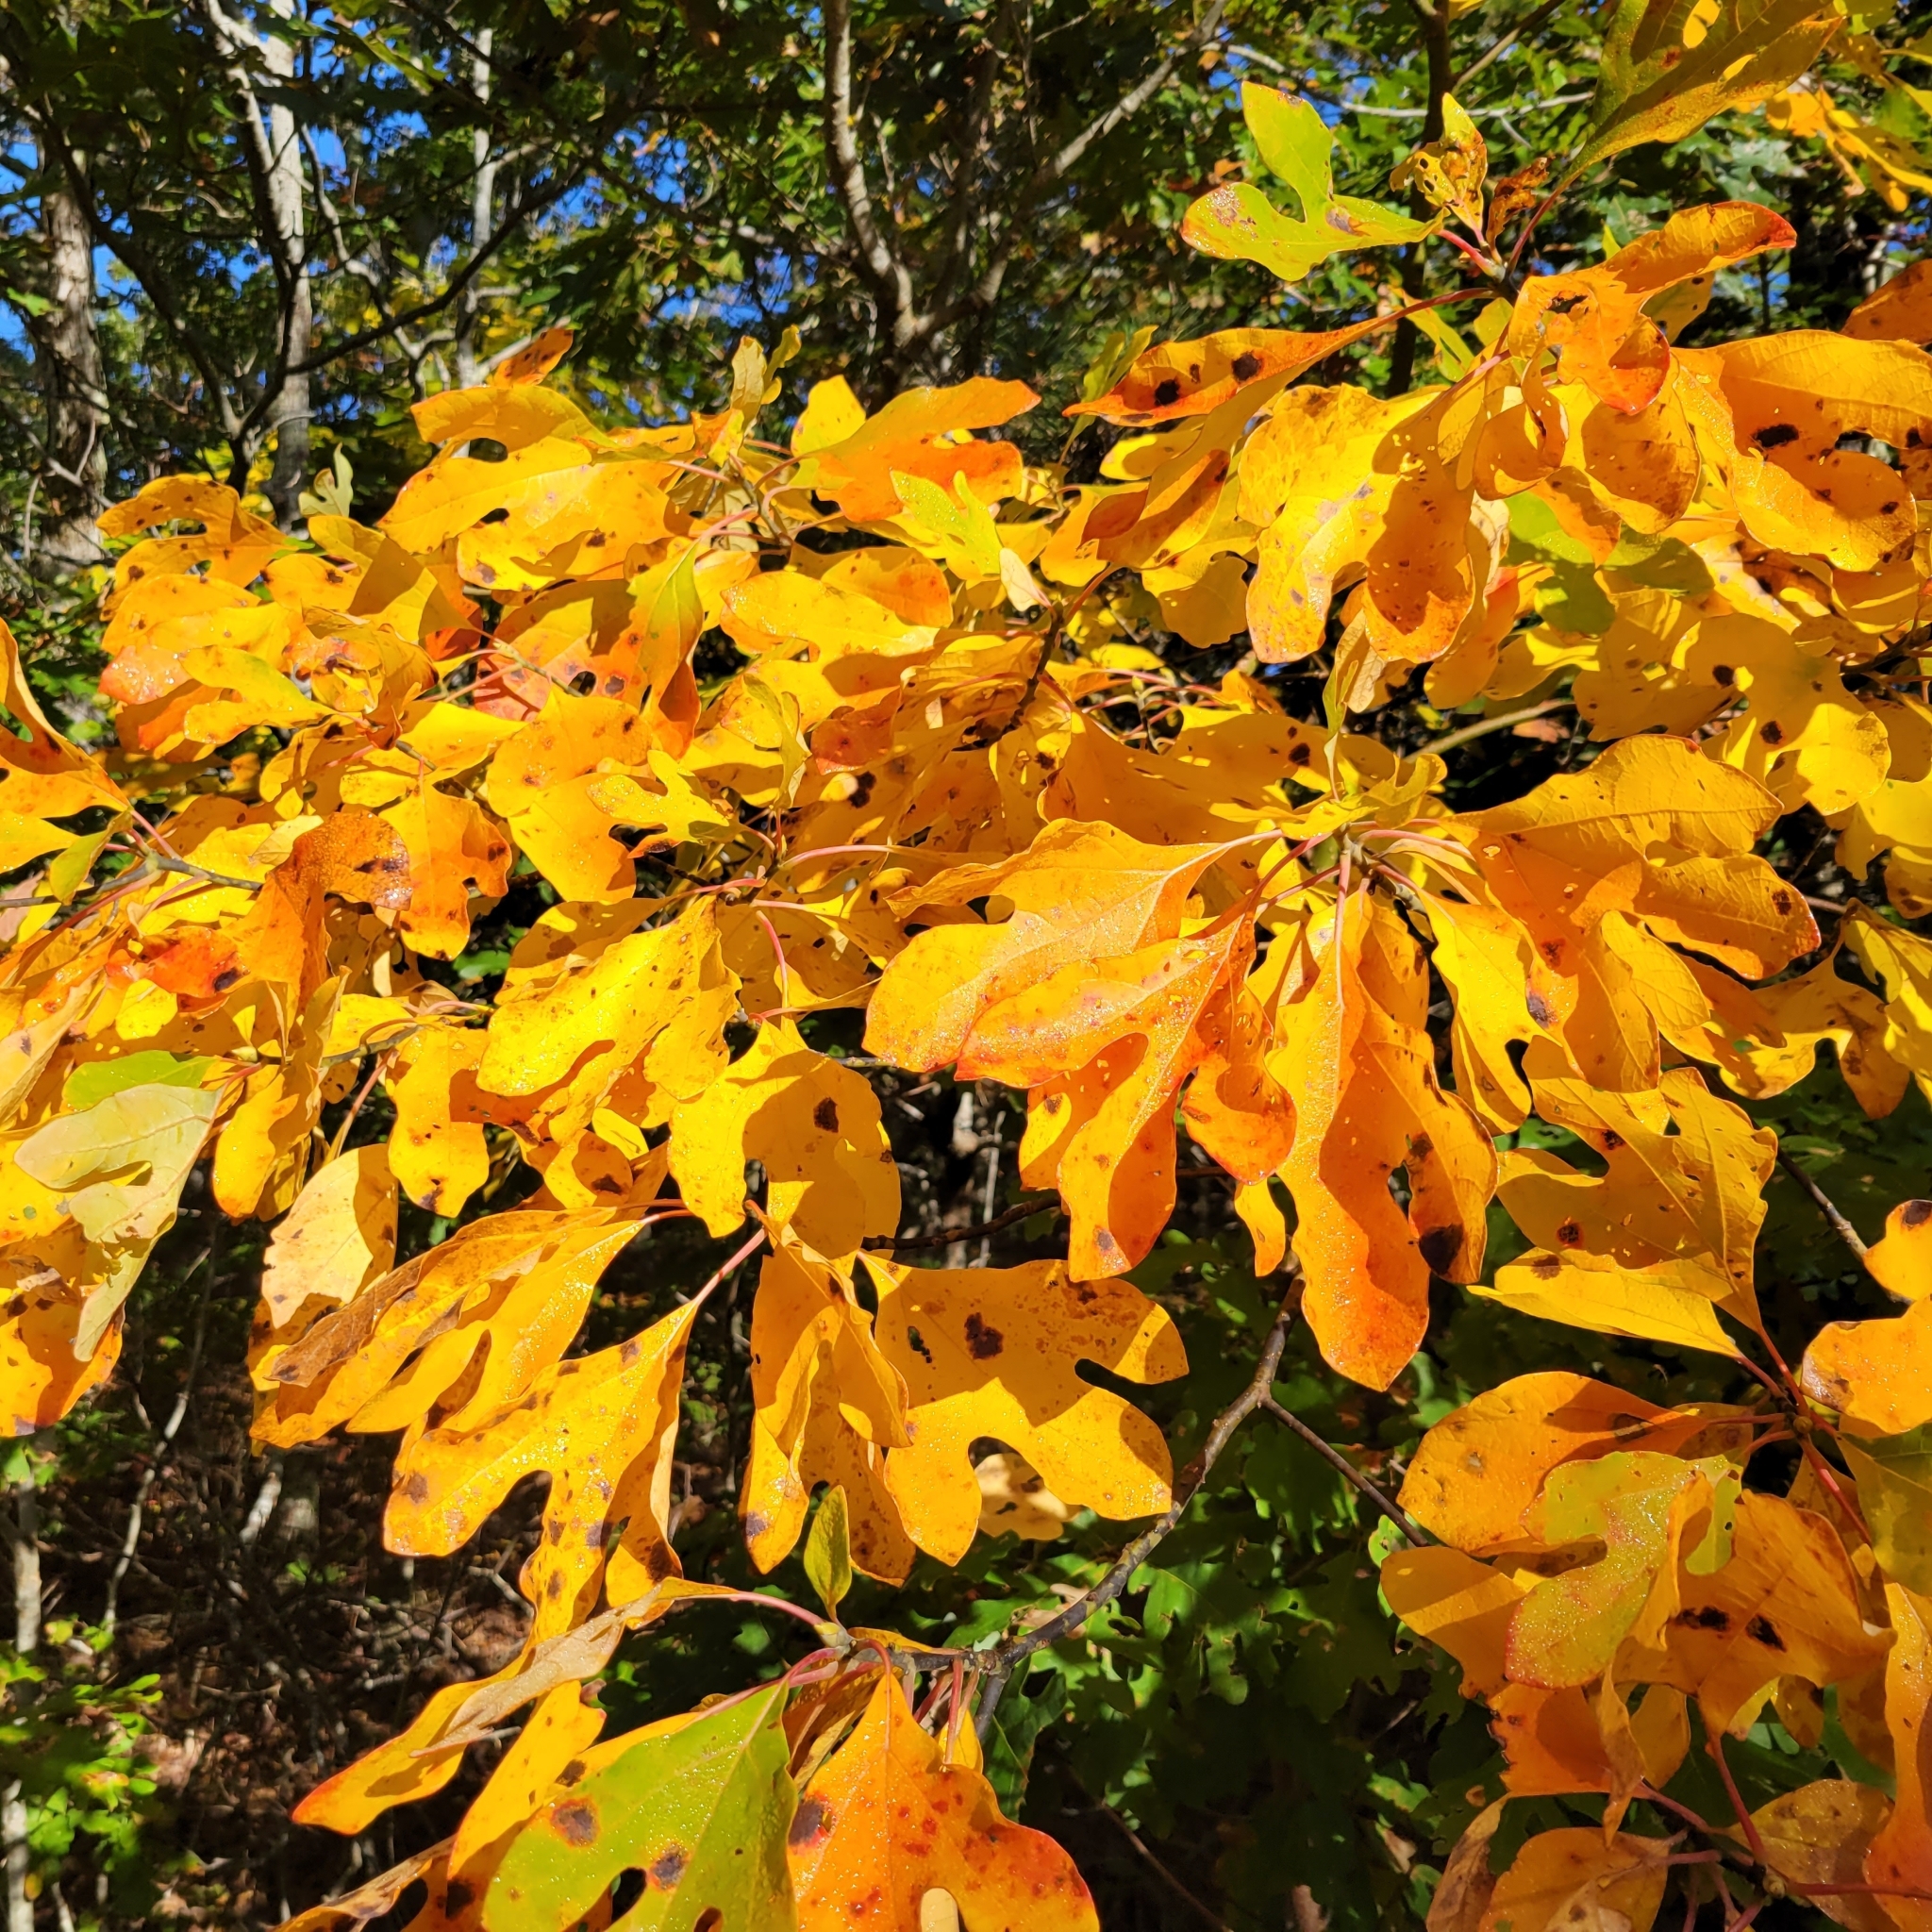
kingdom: Plantae
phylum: Tracheophyta
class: Magnoliopsida
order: Laurales
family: Lauraceae
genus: Sassafras
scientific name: Sassafras albidum
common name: Sassafras
